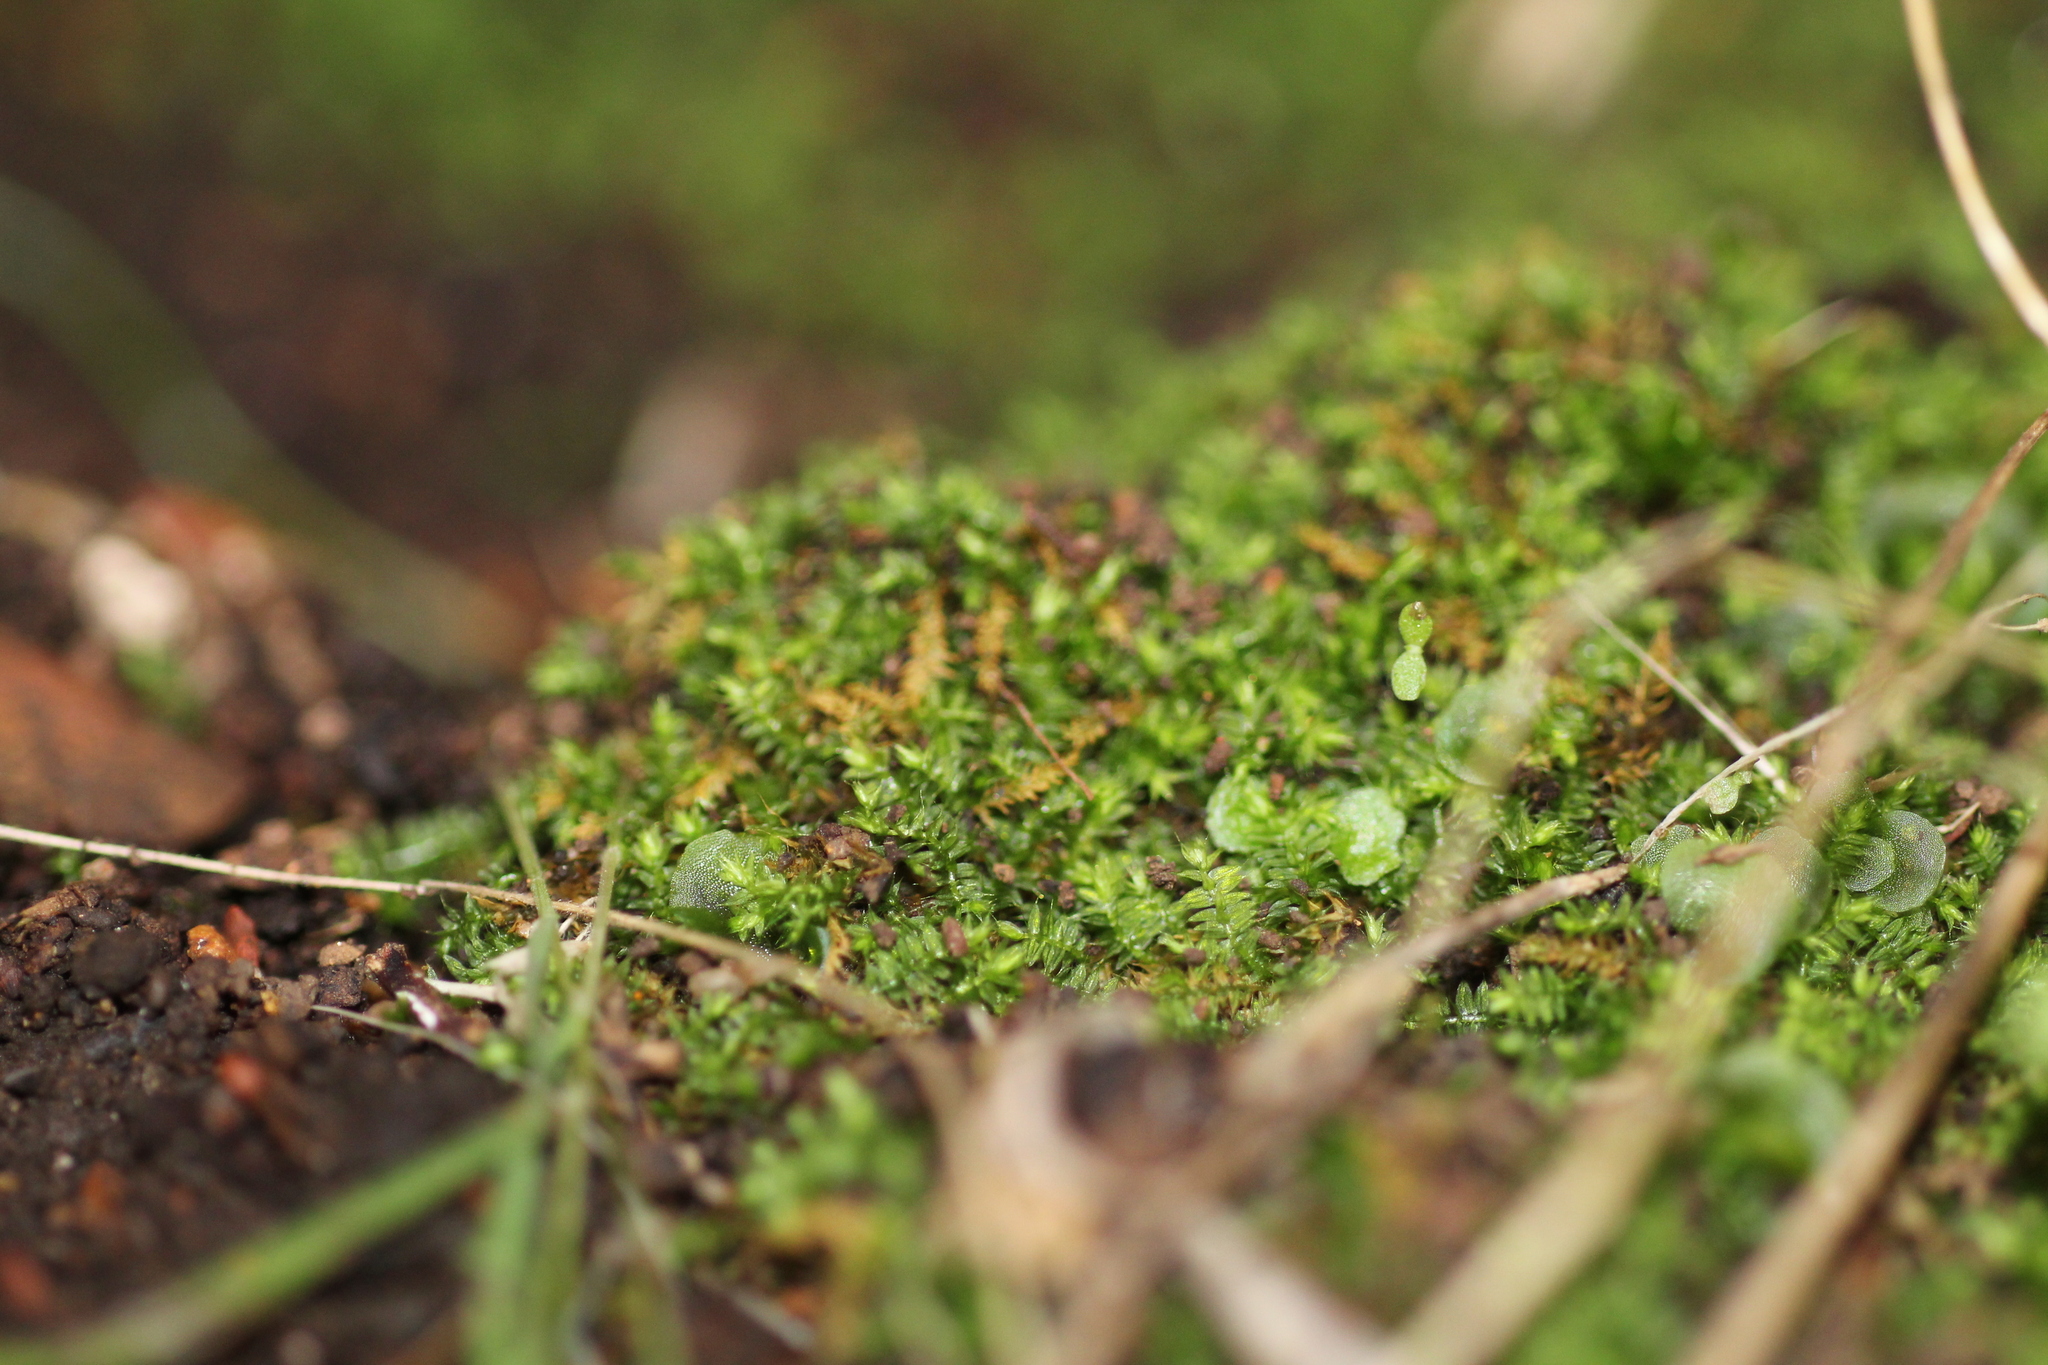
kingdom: Plantae
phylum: Bryophyta
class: Bryopsida
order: Hypnodendrales
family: Racopilaceae
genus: Racopilum
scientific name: Racopilum cuspidigerum
